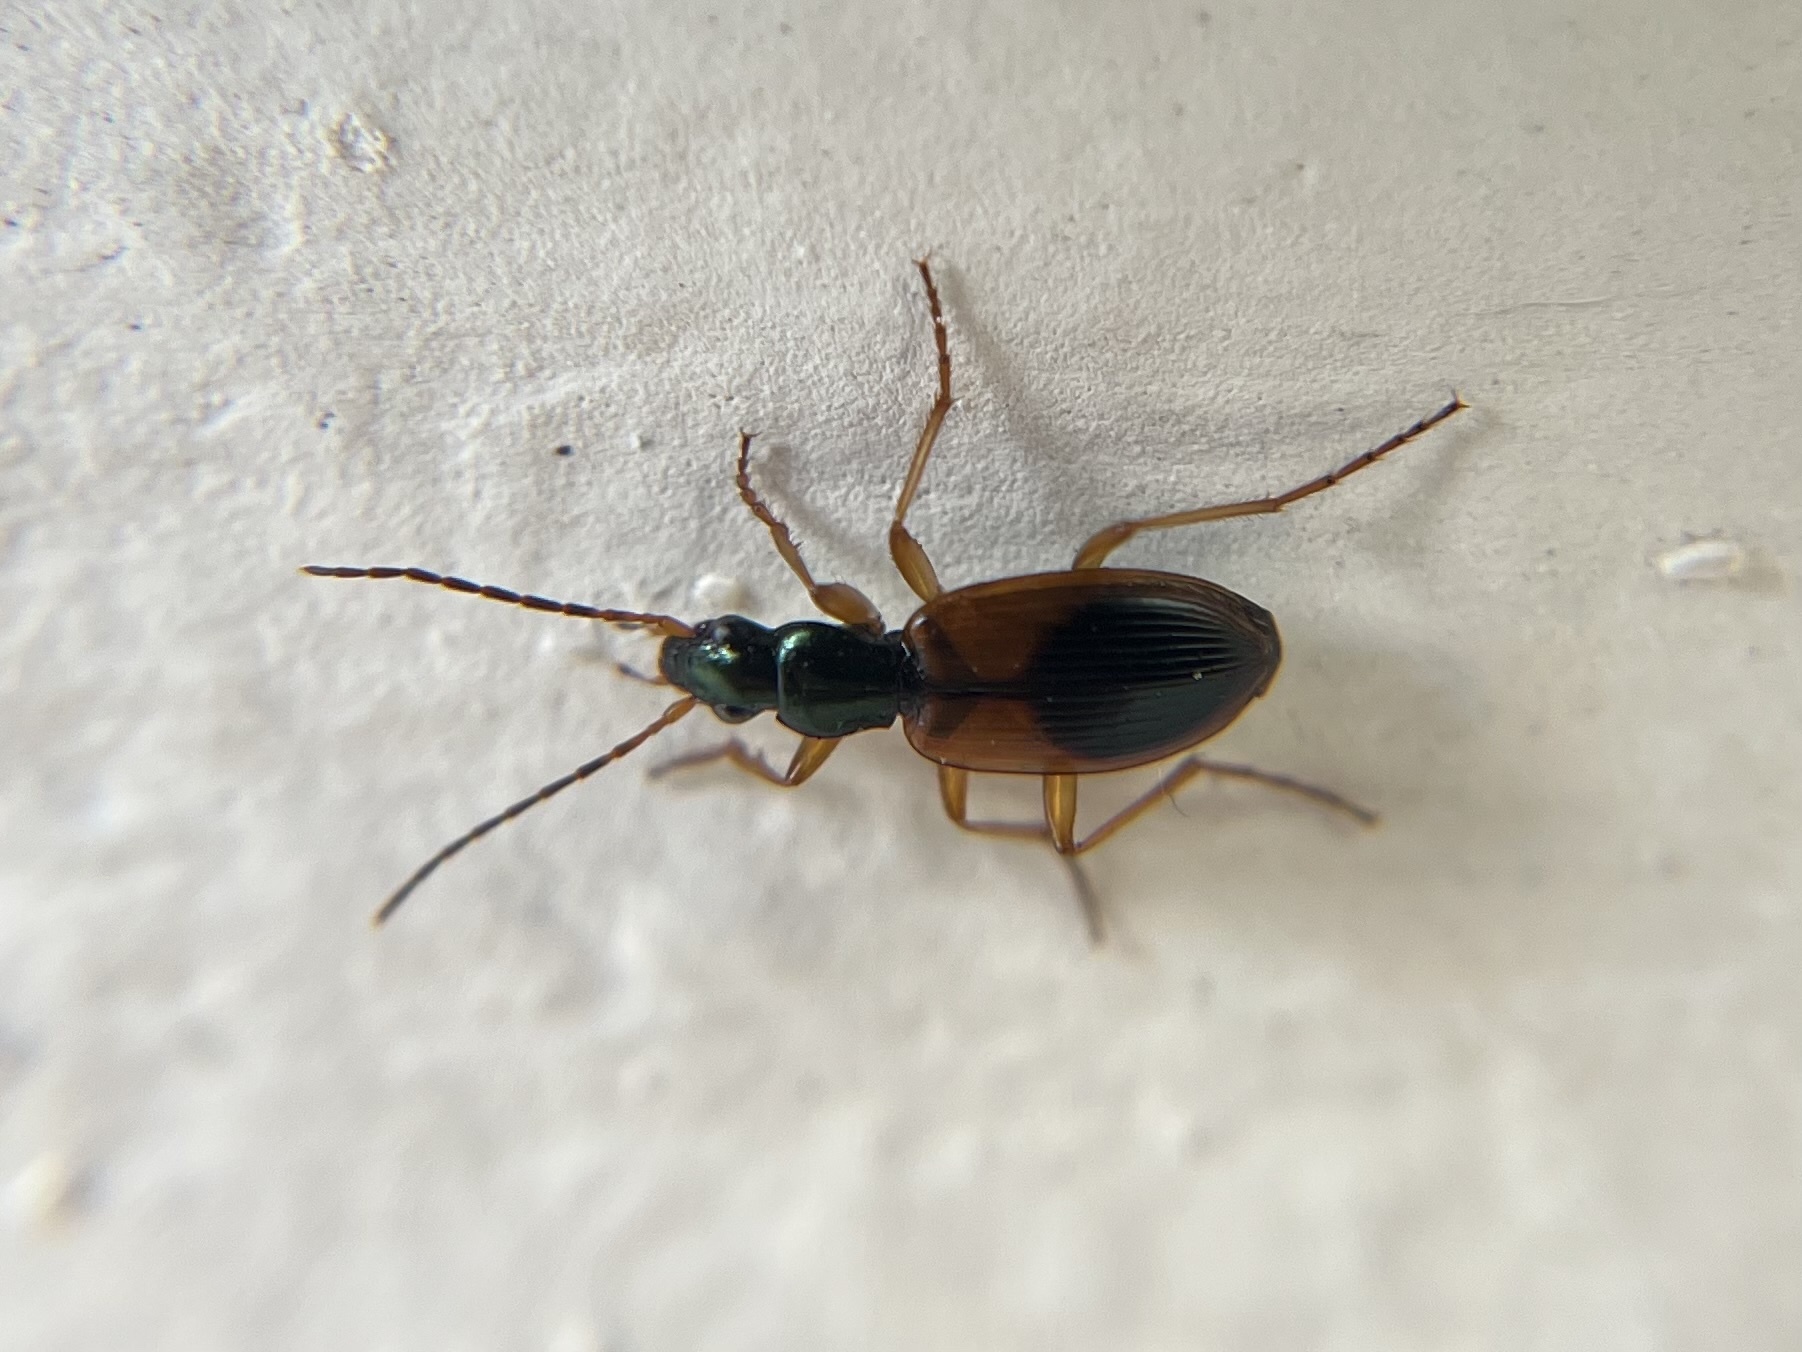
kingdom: Animalia
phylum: Arthropoda
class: Insecta
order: Coleoptera
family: Carabidae
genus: Anchomenus
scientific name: Anchomenus dorsalis
